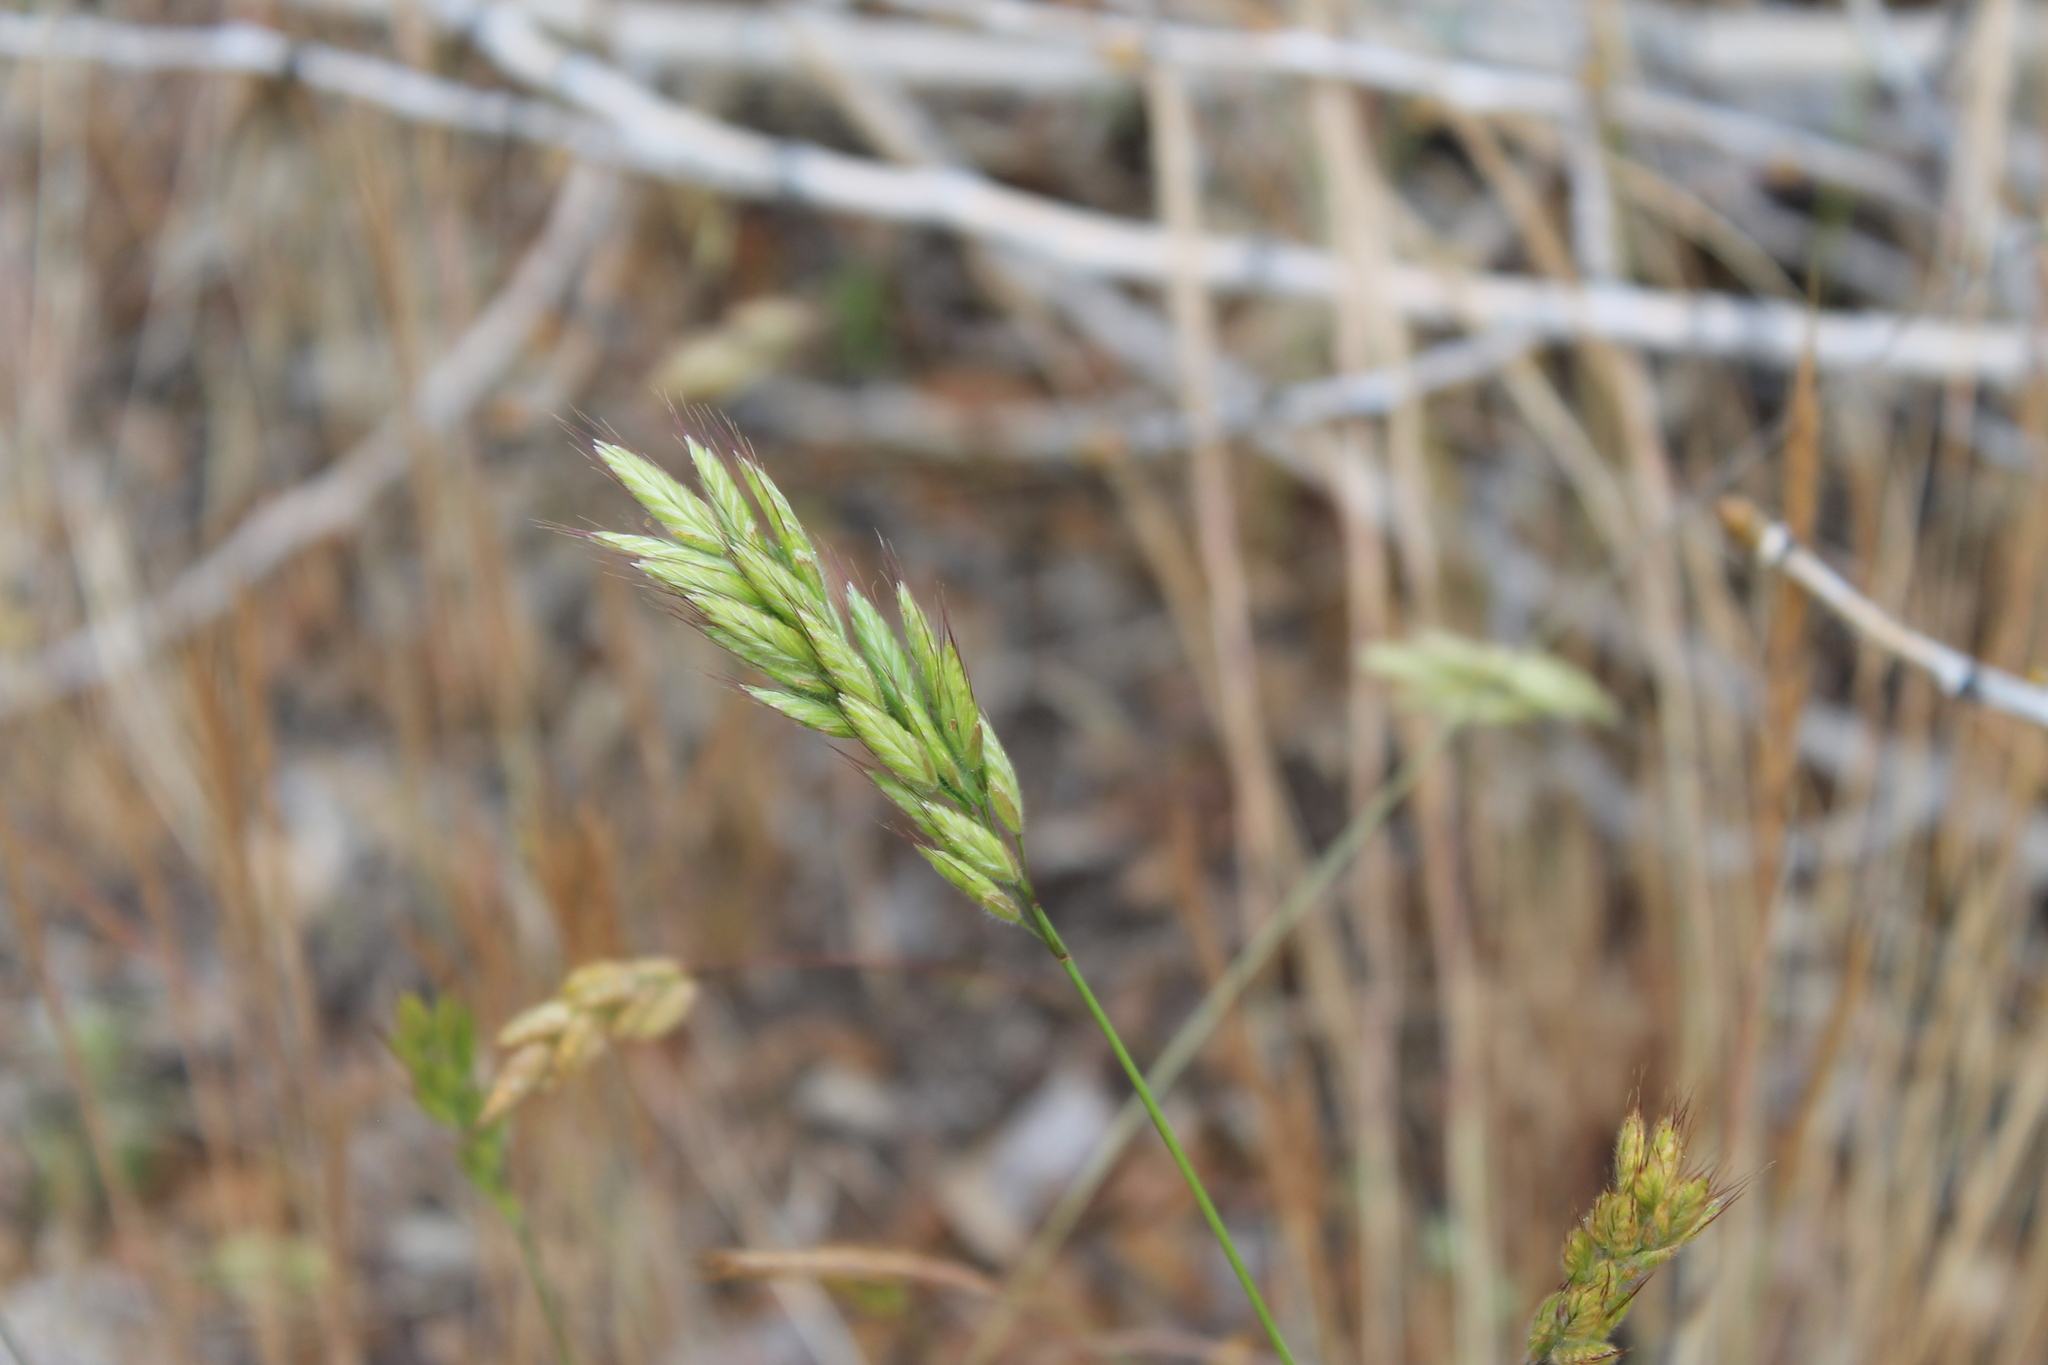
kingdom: Plantae
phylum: Tracheophyta
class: Liliopsida
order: Poales
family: Poaceae
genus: Bromus
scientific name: Bromus hordeaceus
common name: Soft brome
